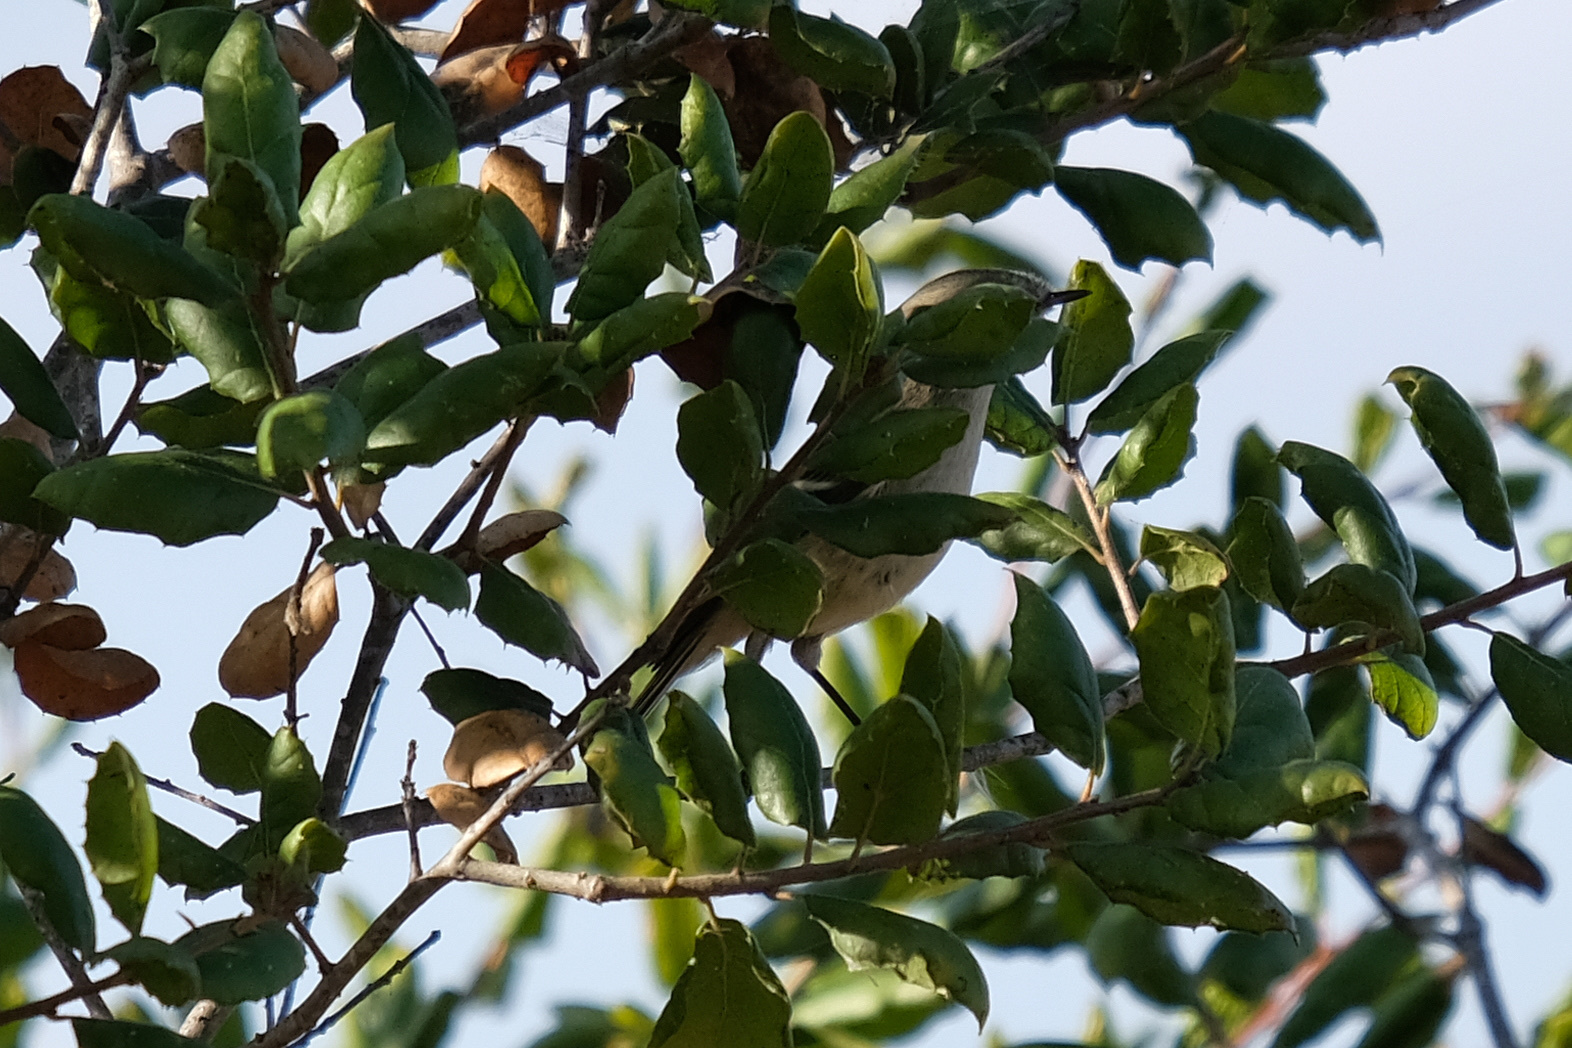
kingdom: Animalia
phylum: Chordata
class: Aves
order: Passeriformes
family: Regulidae
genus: Regulus
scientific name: Regulus calendula
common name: Ruby-crowned kinglet
